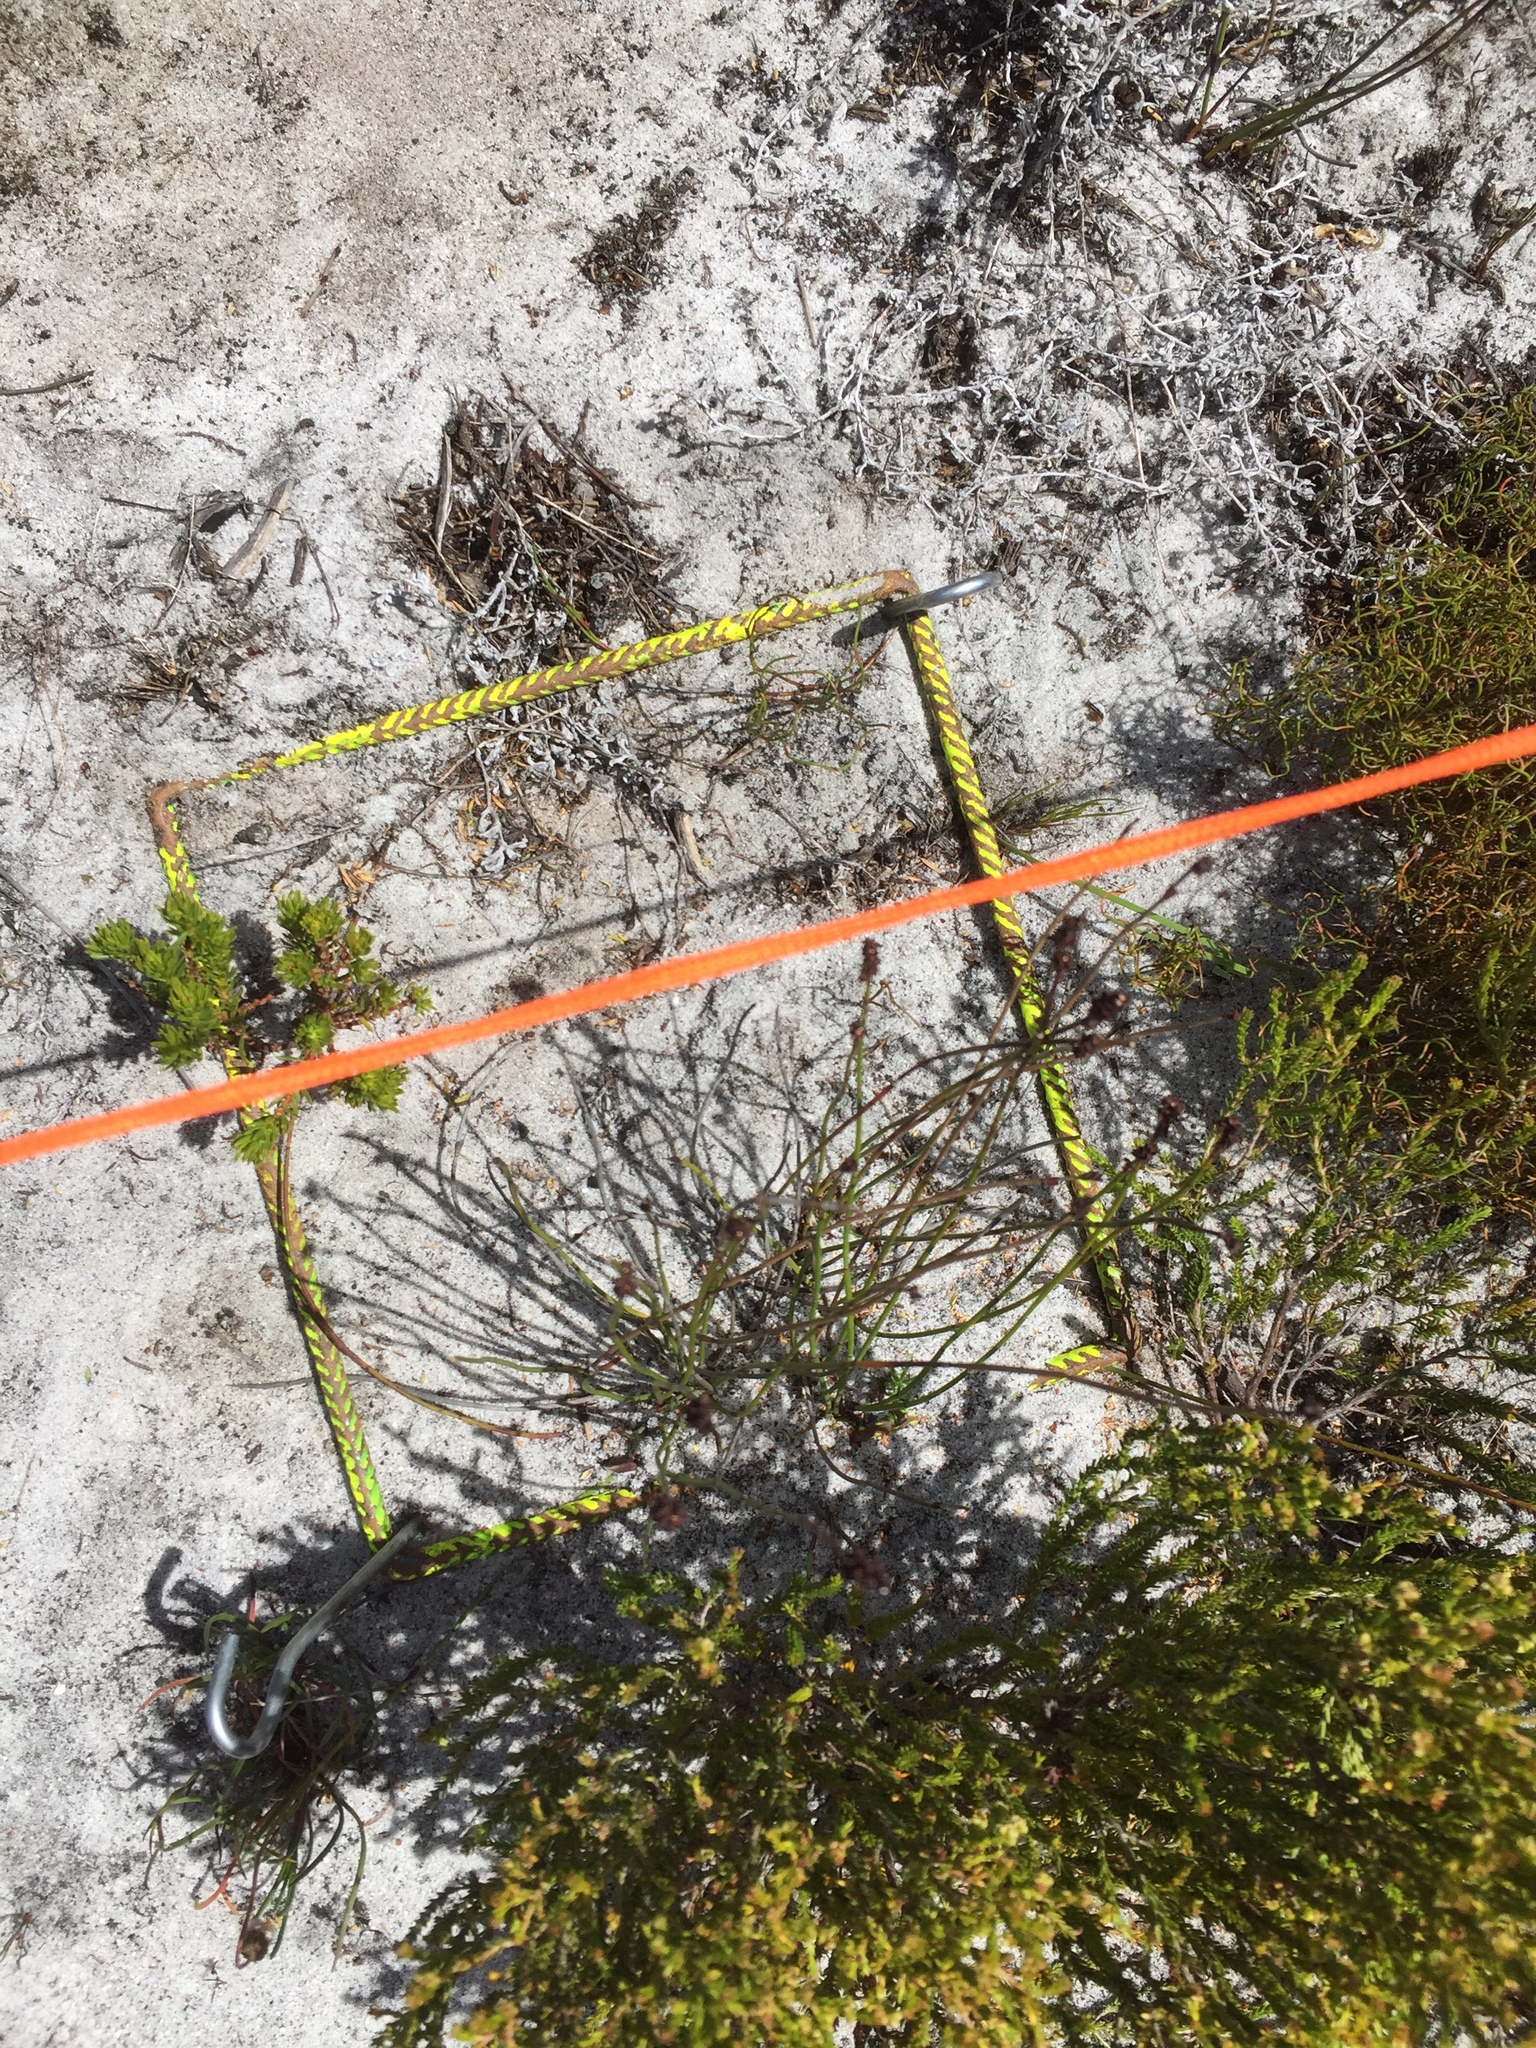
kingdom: Plantae
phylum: Tracheophyta
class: Liliopsida
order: Poales
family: Restionaceae
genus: Elegia
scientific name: Elegia nuda
